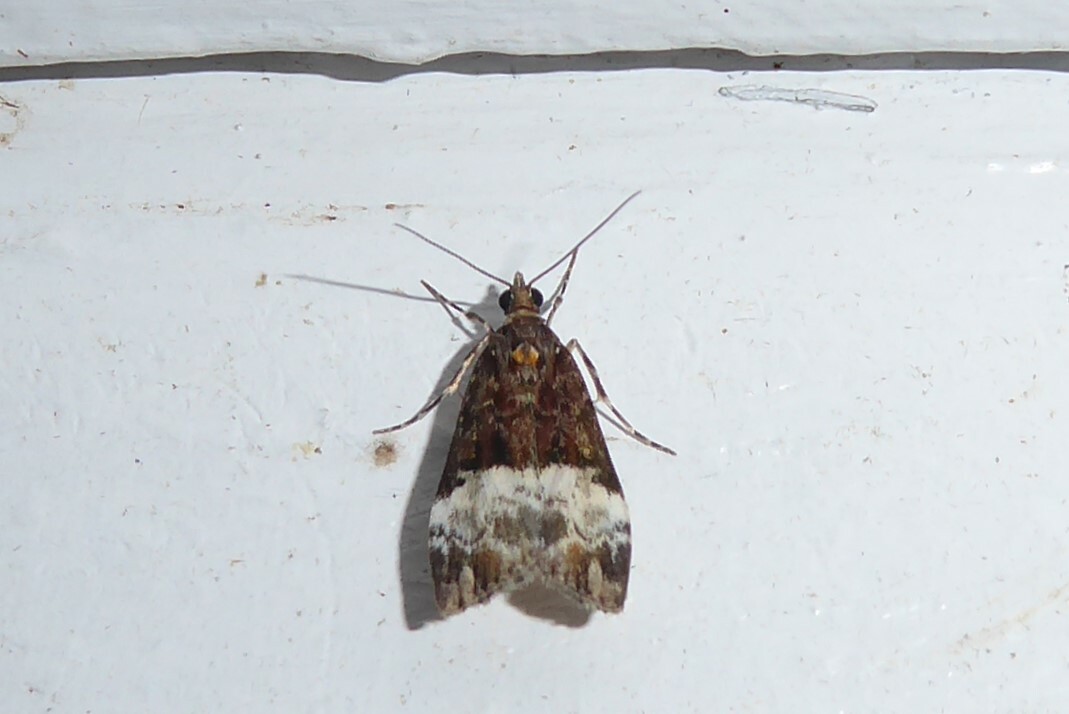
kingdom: Animalia
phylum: Arthropoda
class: Insecta
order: Lepidoptera
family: Crambidae
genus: Scoparia
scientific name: Scoparia minusculalis
